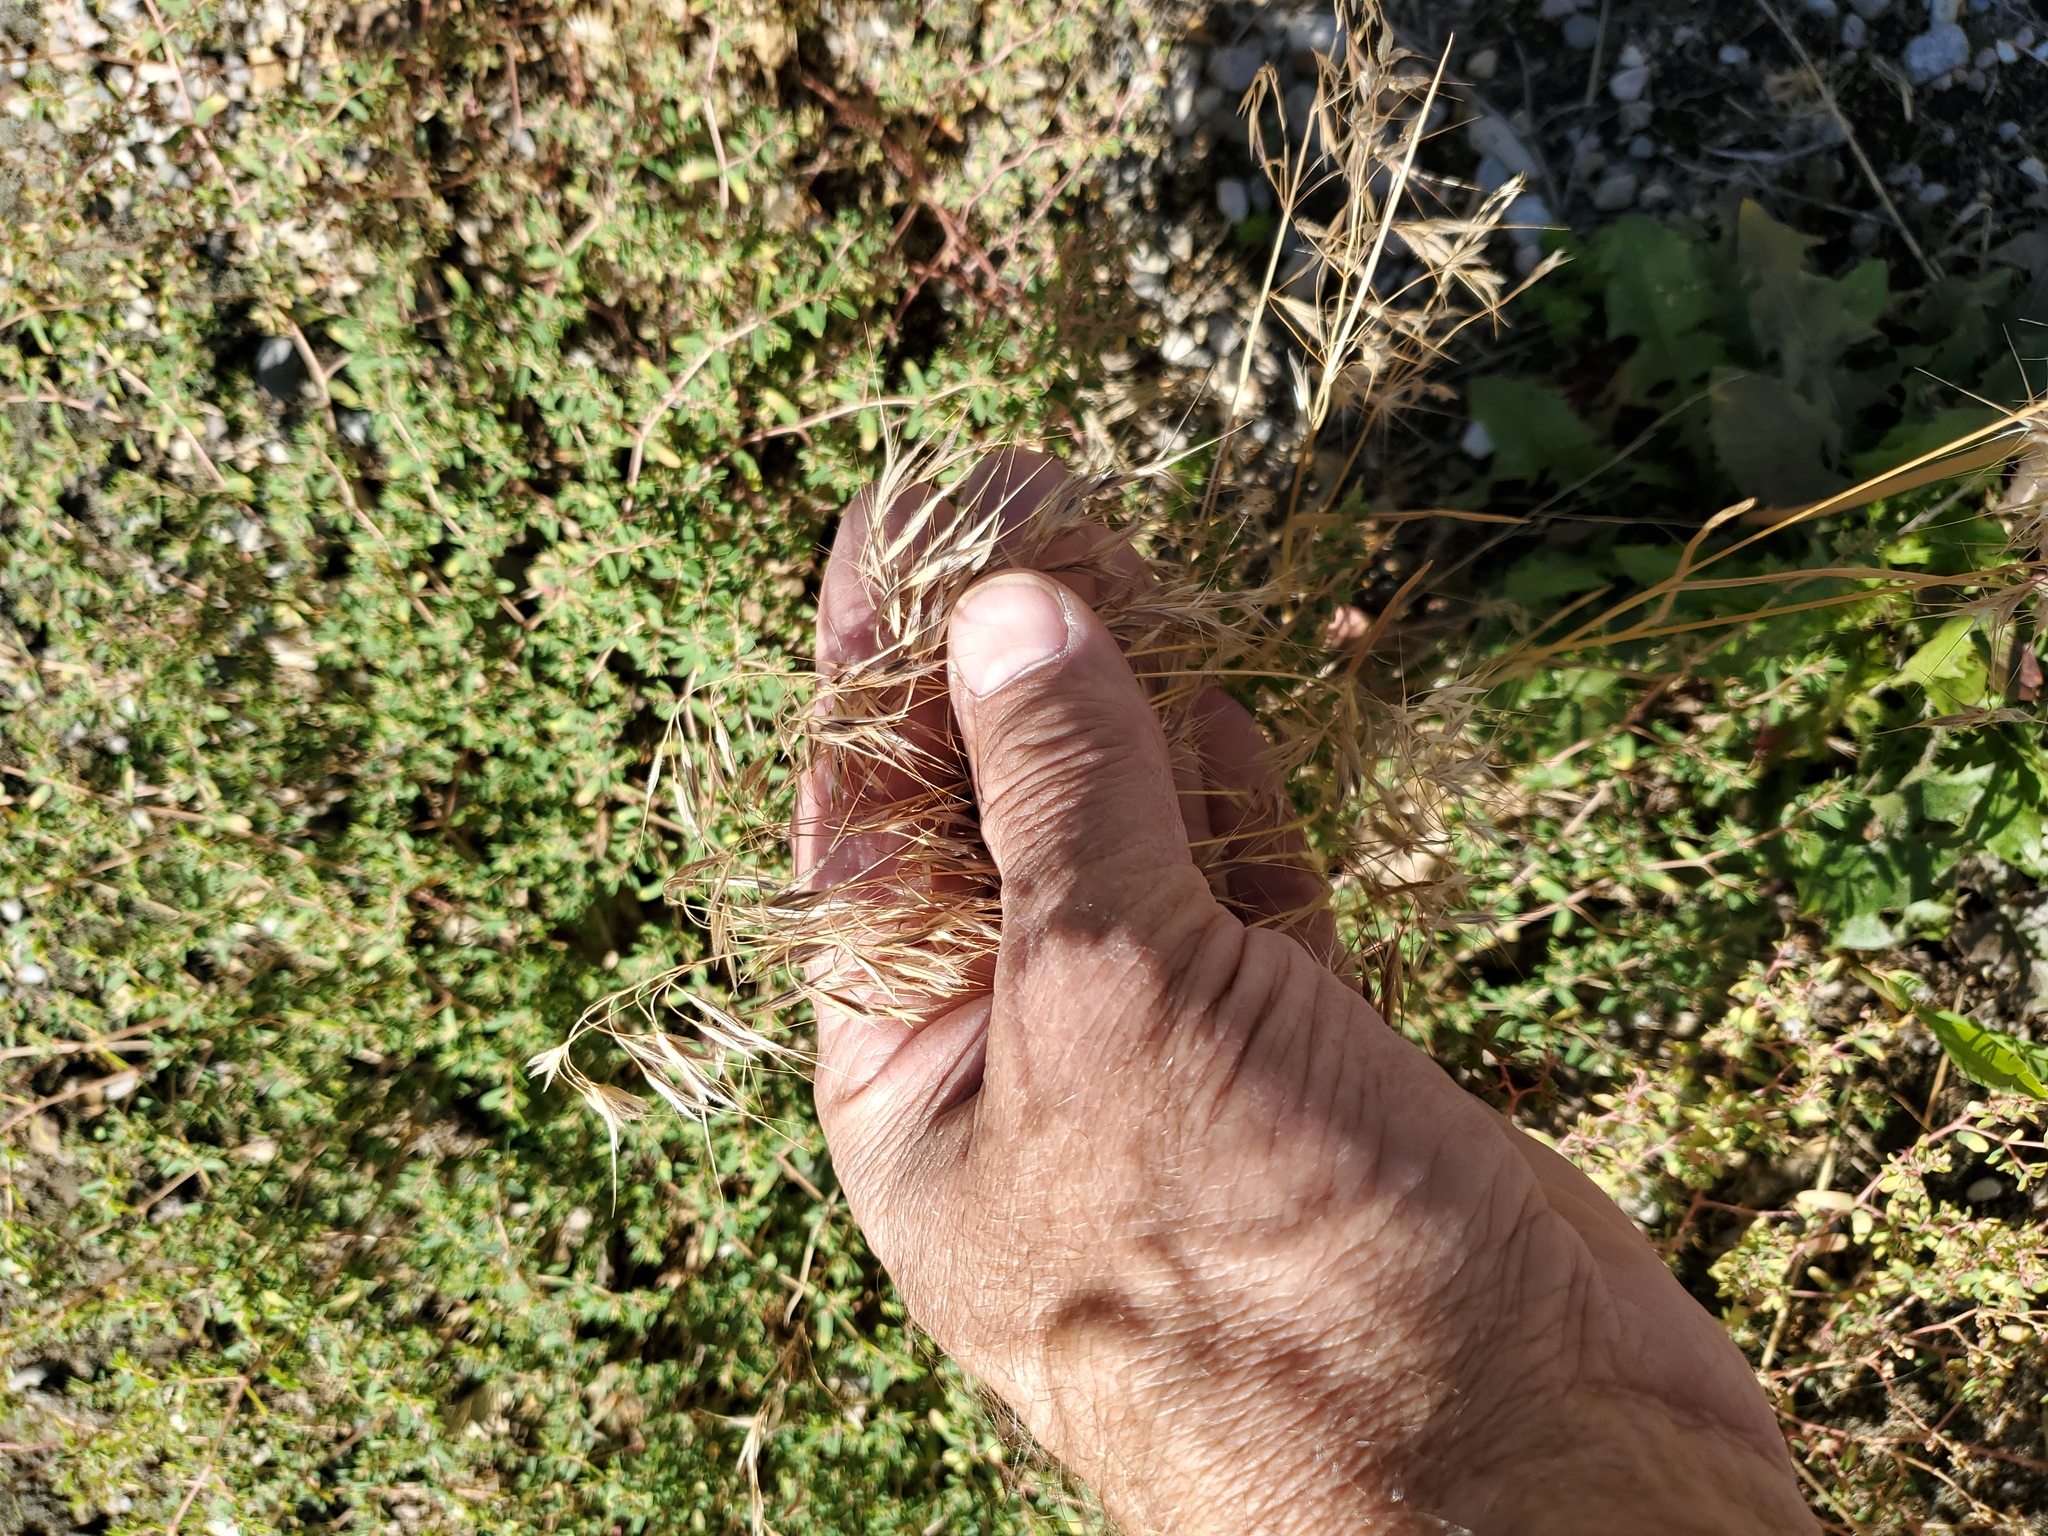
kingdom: Plantae
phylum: Tracheophyta
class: Liliopsida
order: Poales
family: Poaceae
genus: Bromus
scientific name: Bromus tectorum
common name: Cheatgrass
